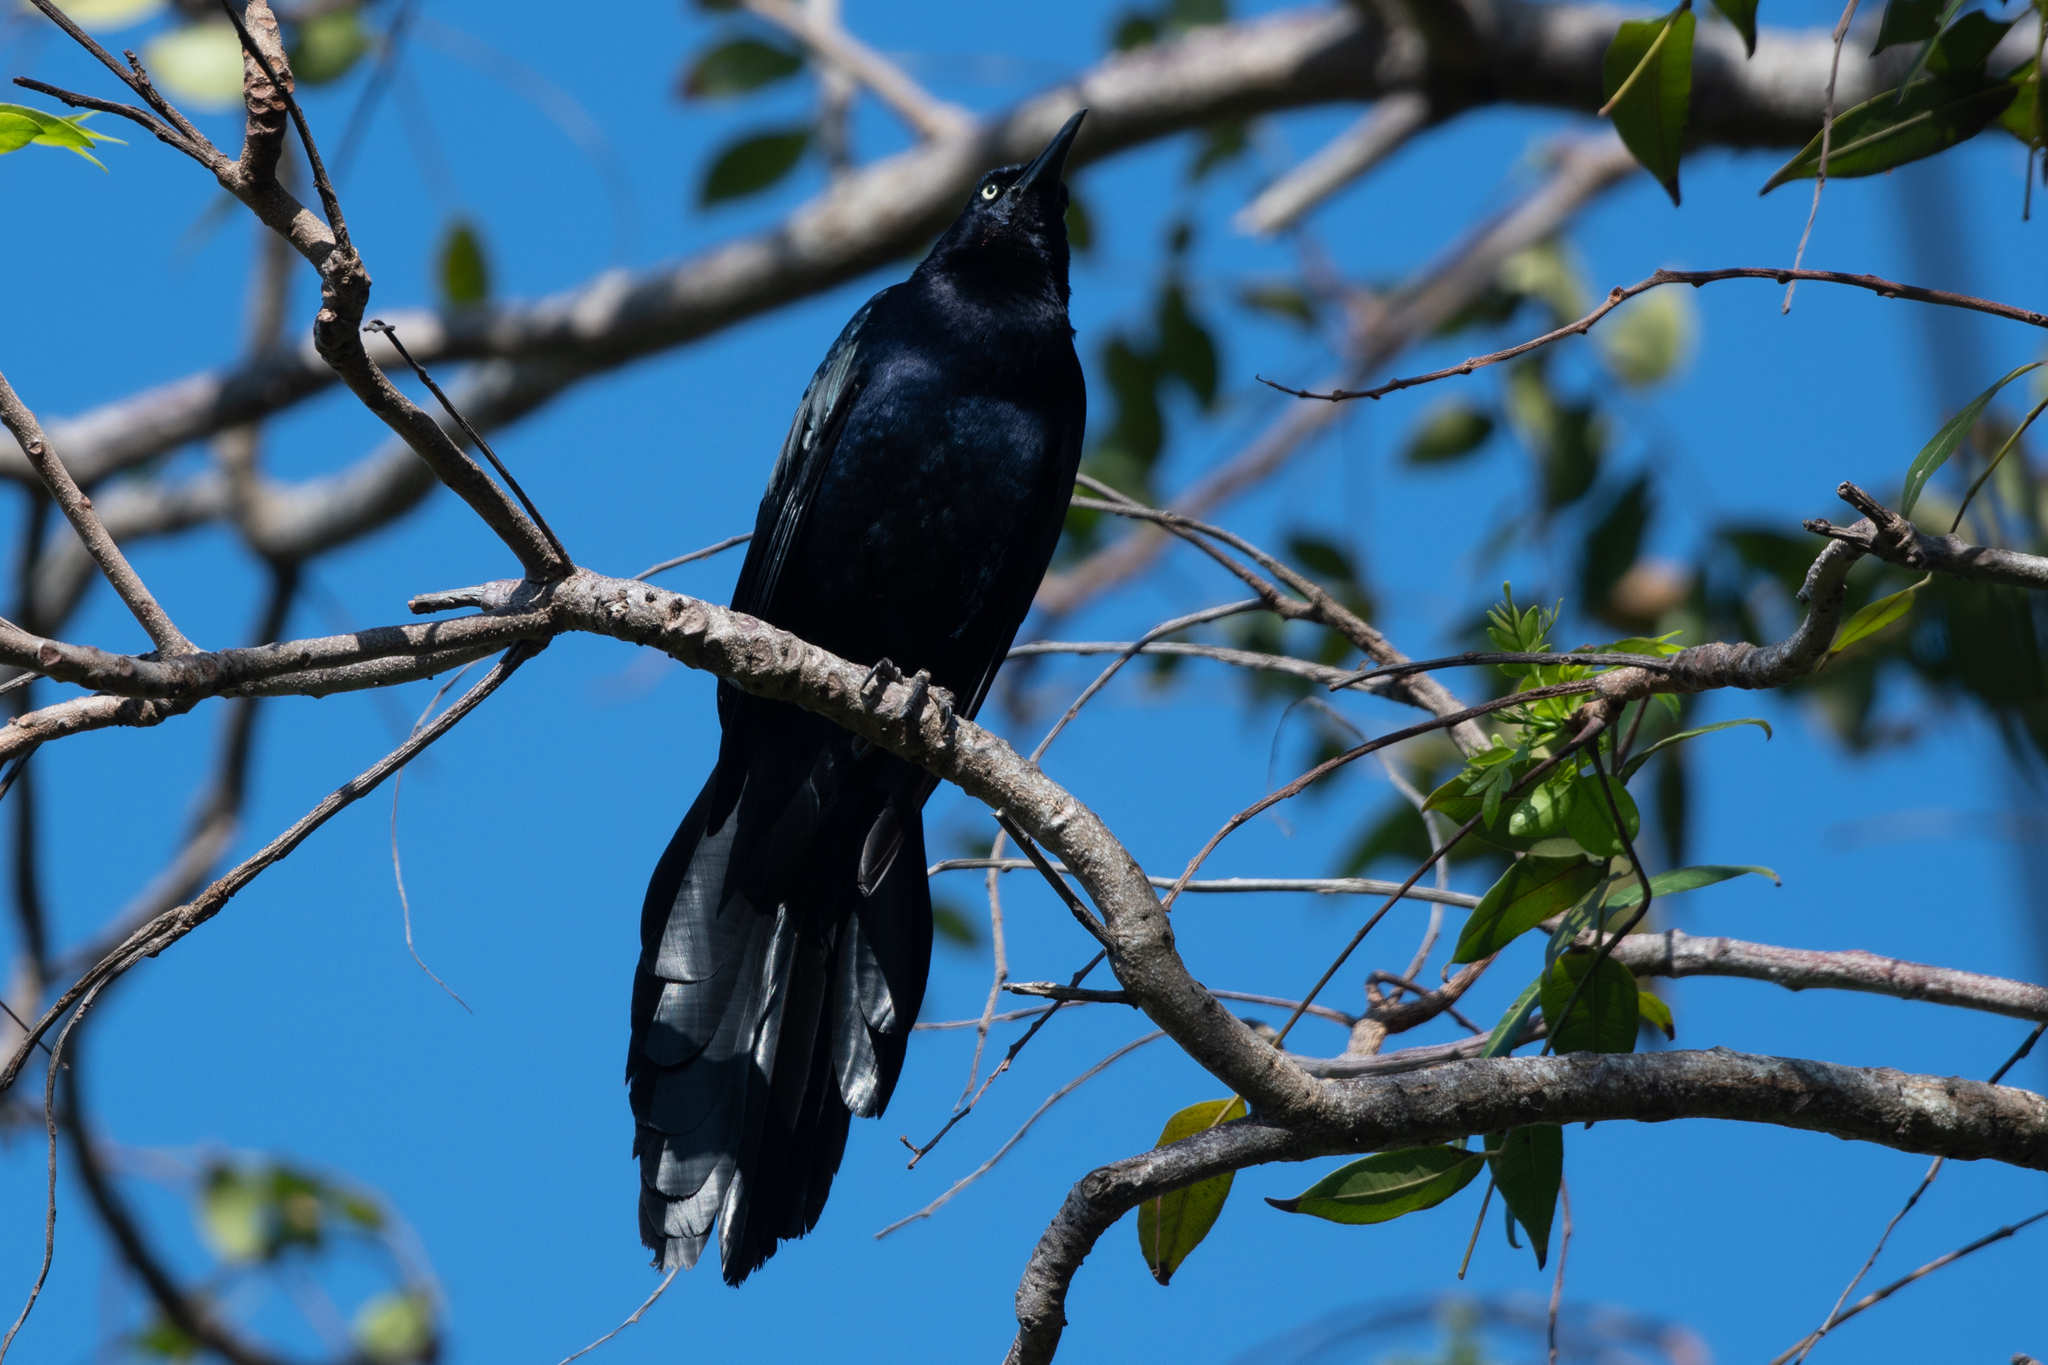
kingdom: Animalia
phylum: Chordata
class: Aves
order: Passeriformes
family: Icteridae
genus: Quiscalus
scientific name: Quiscalus mexicanus
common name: Great-tailed grackle
